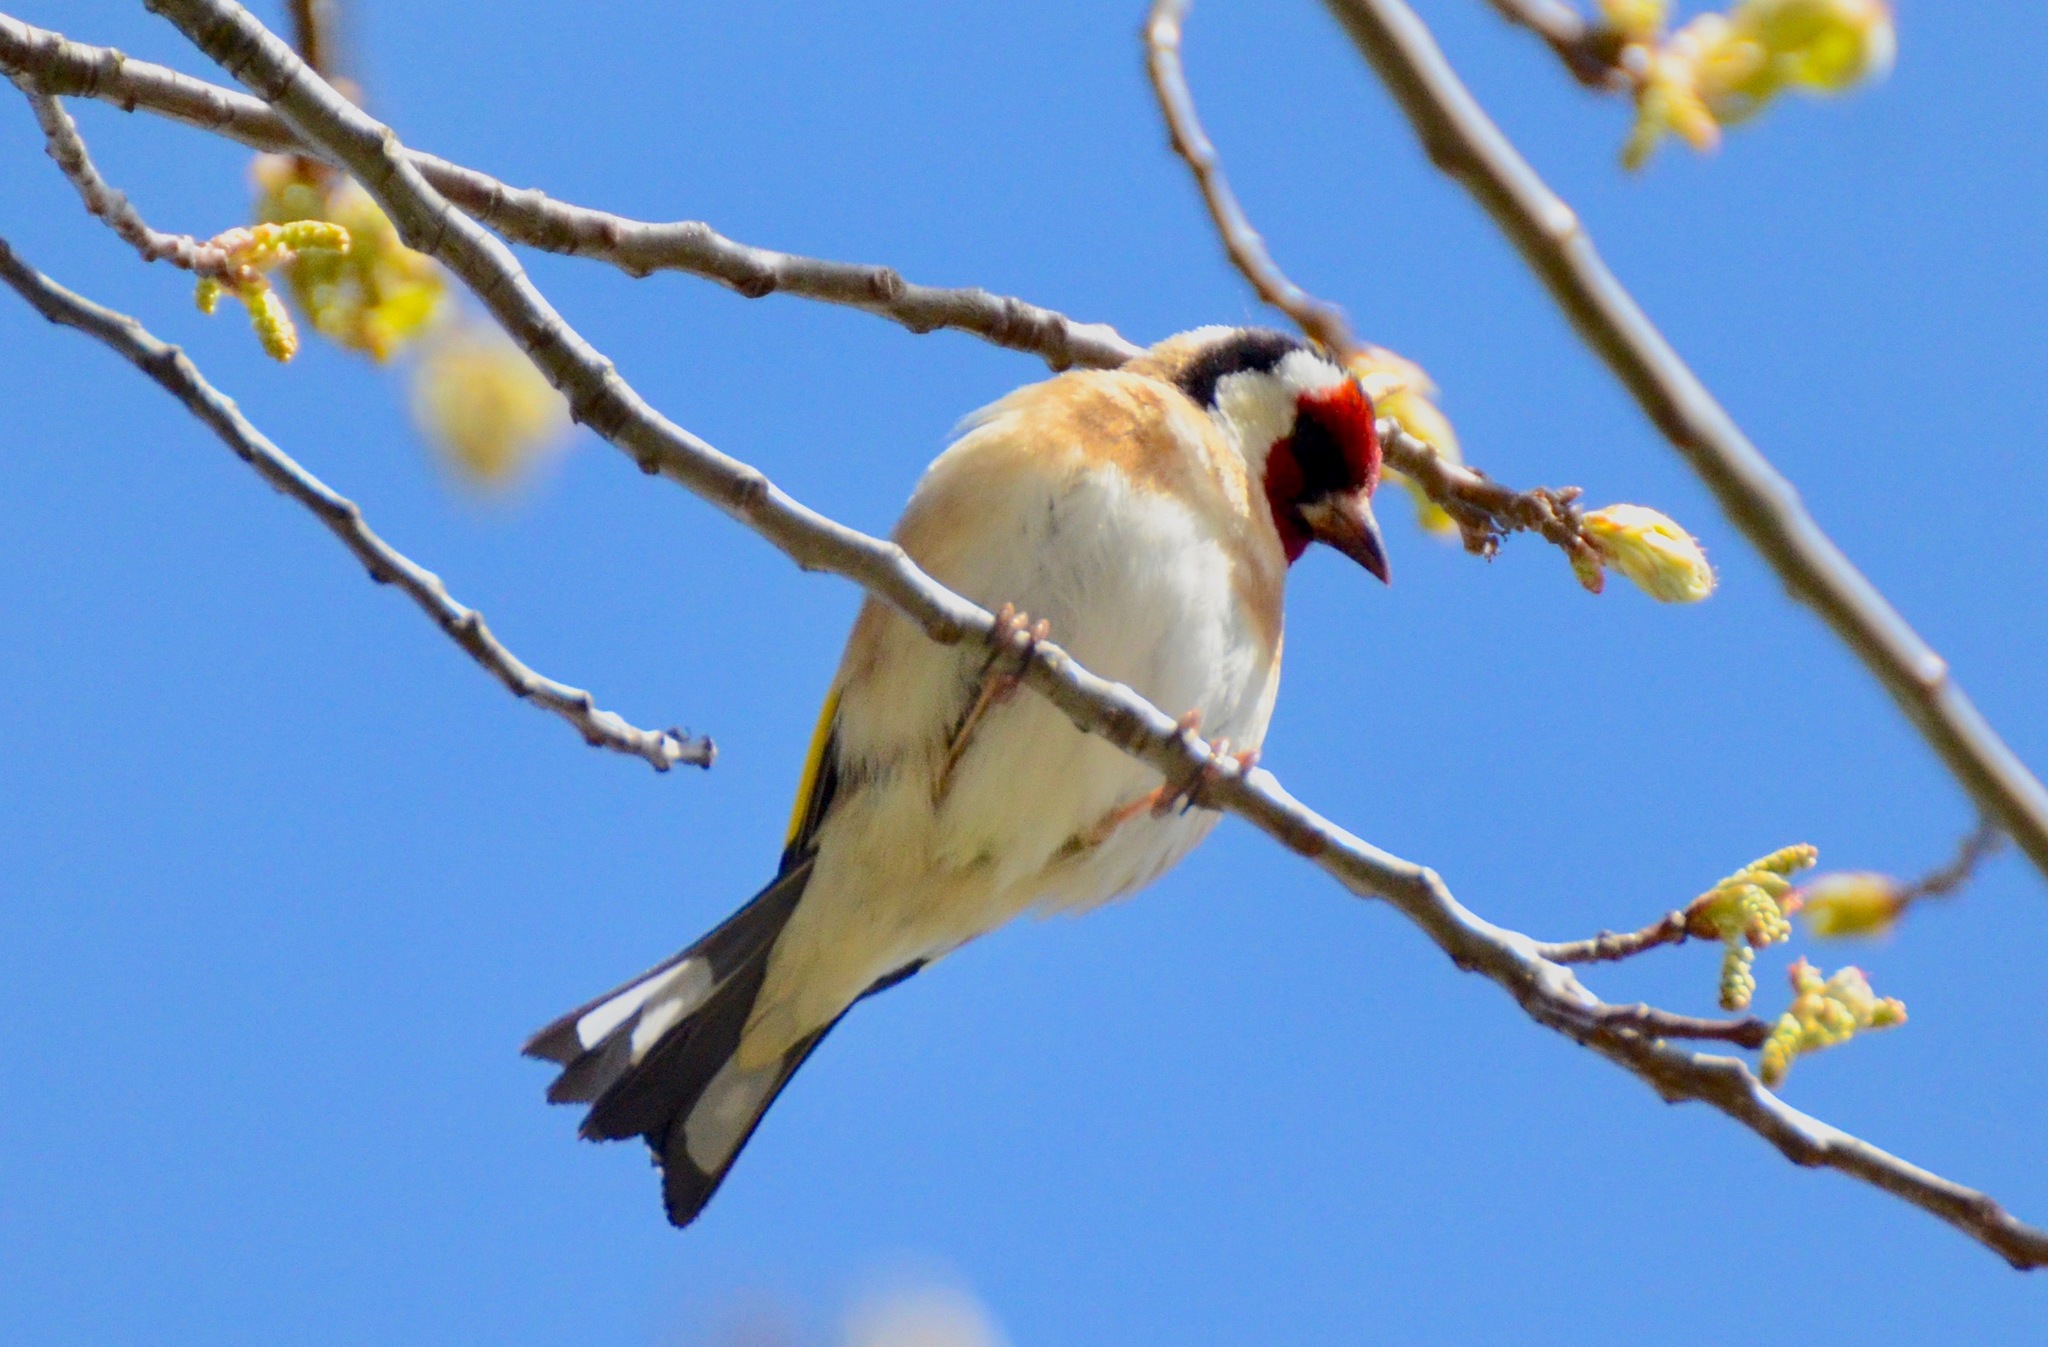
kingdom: Animalia
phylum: Chordata
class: Aves
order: Passeriformes
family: Fringillidae
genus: Carduelis
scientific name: Carduelis carduelis
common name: European goldfinch
